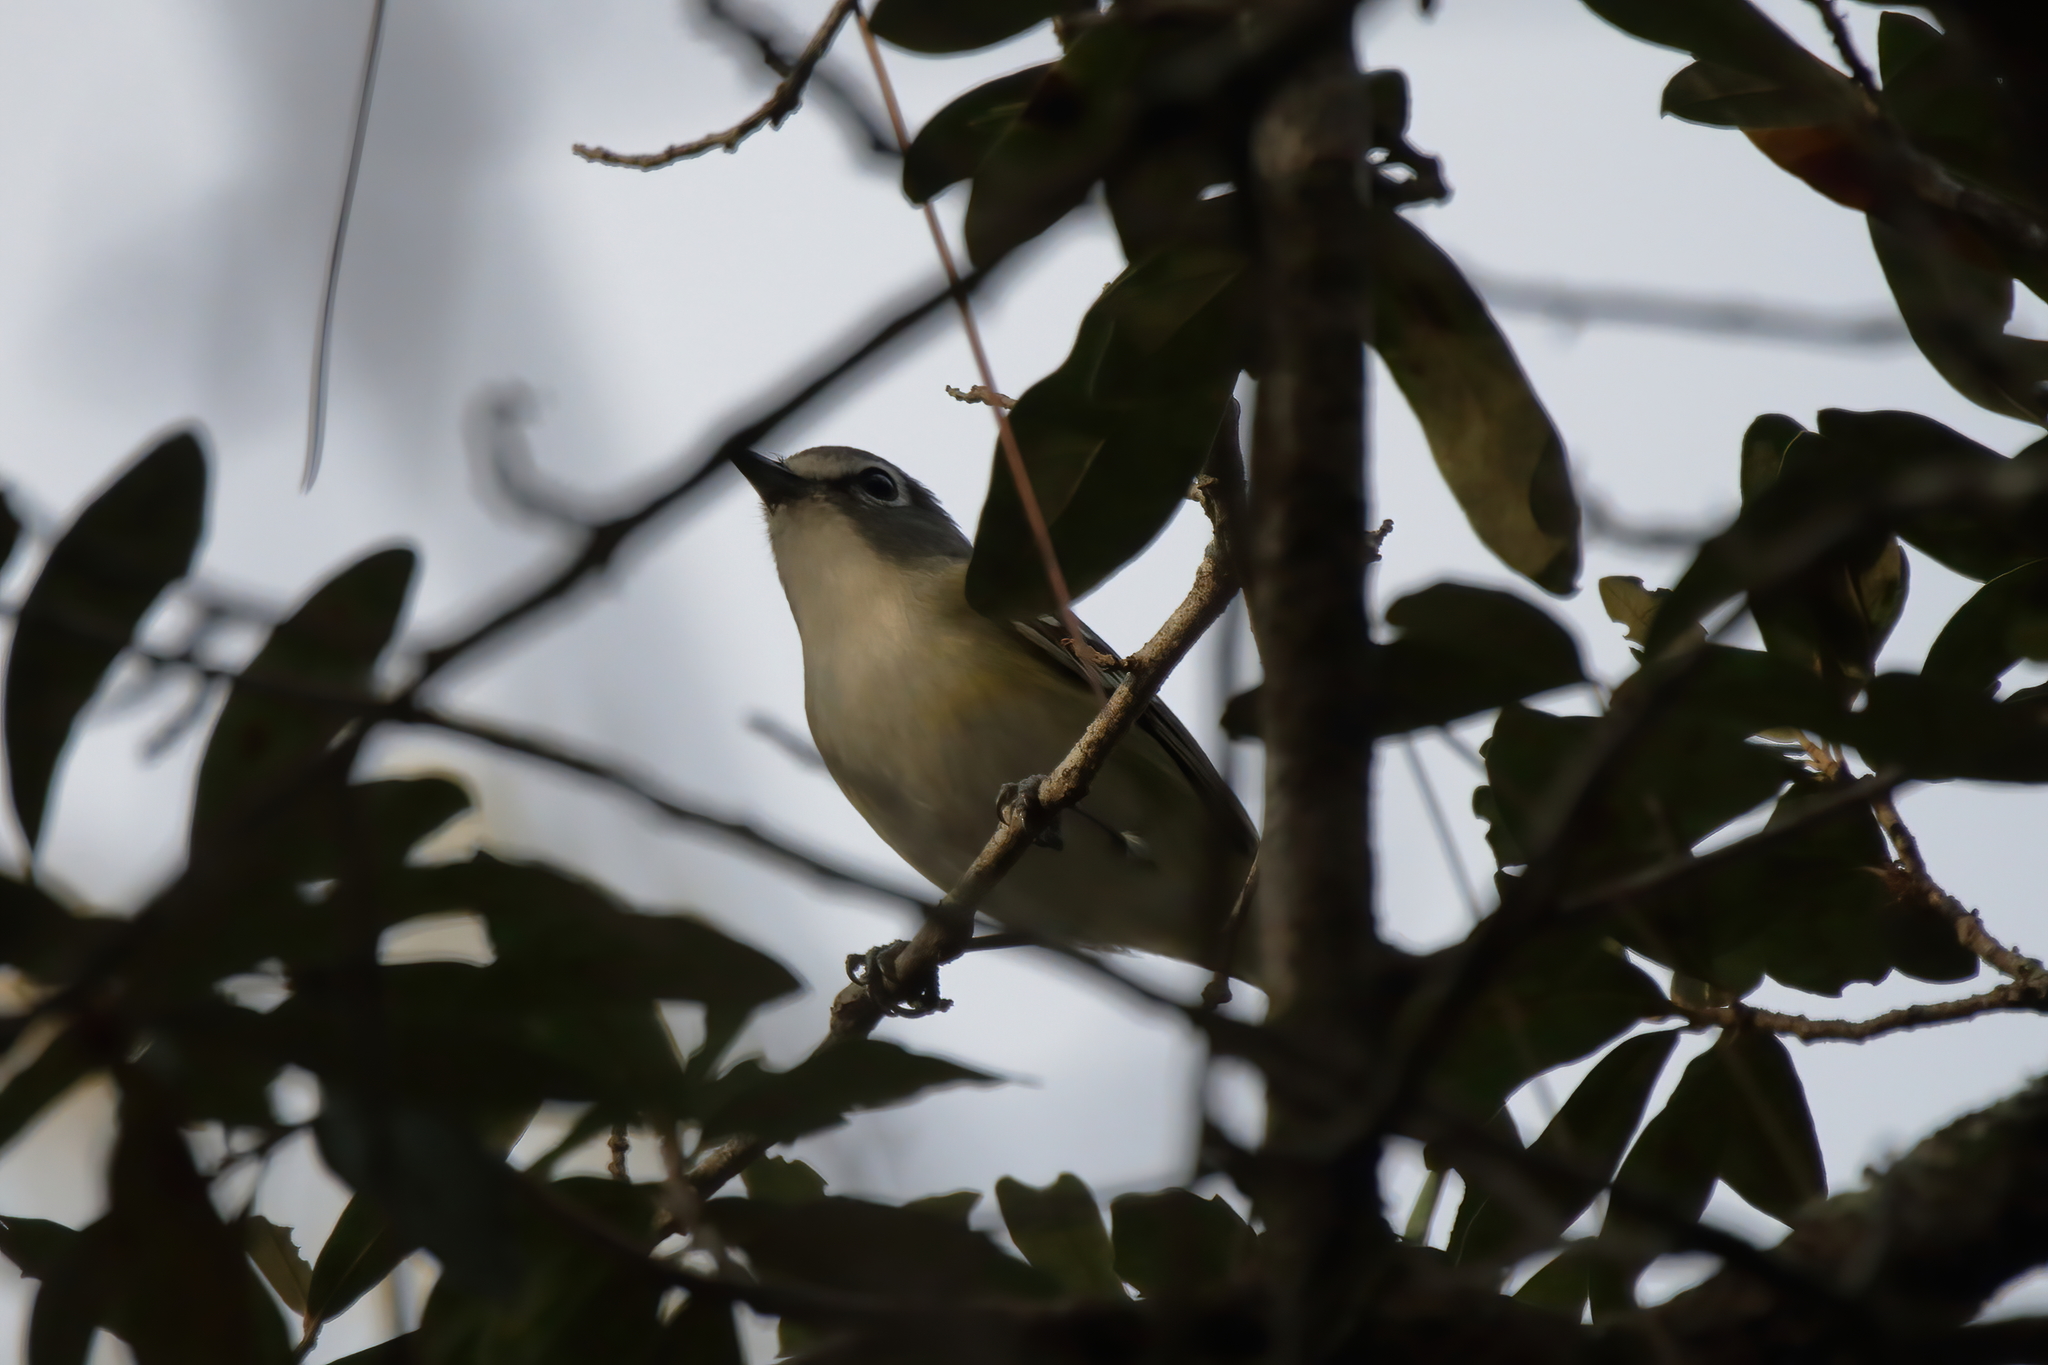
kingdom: Animalia
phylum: Chordata
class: Aves
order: Passeriformes
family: Vireonidae
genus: Vireo
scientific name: Vireo solitarius
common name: Blue-headed vireo
